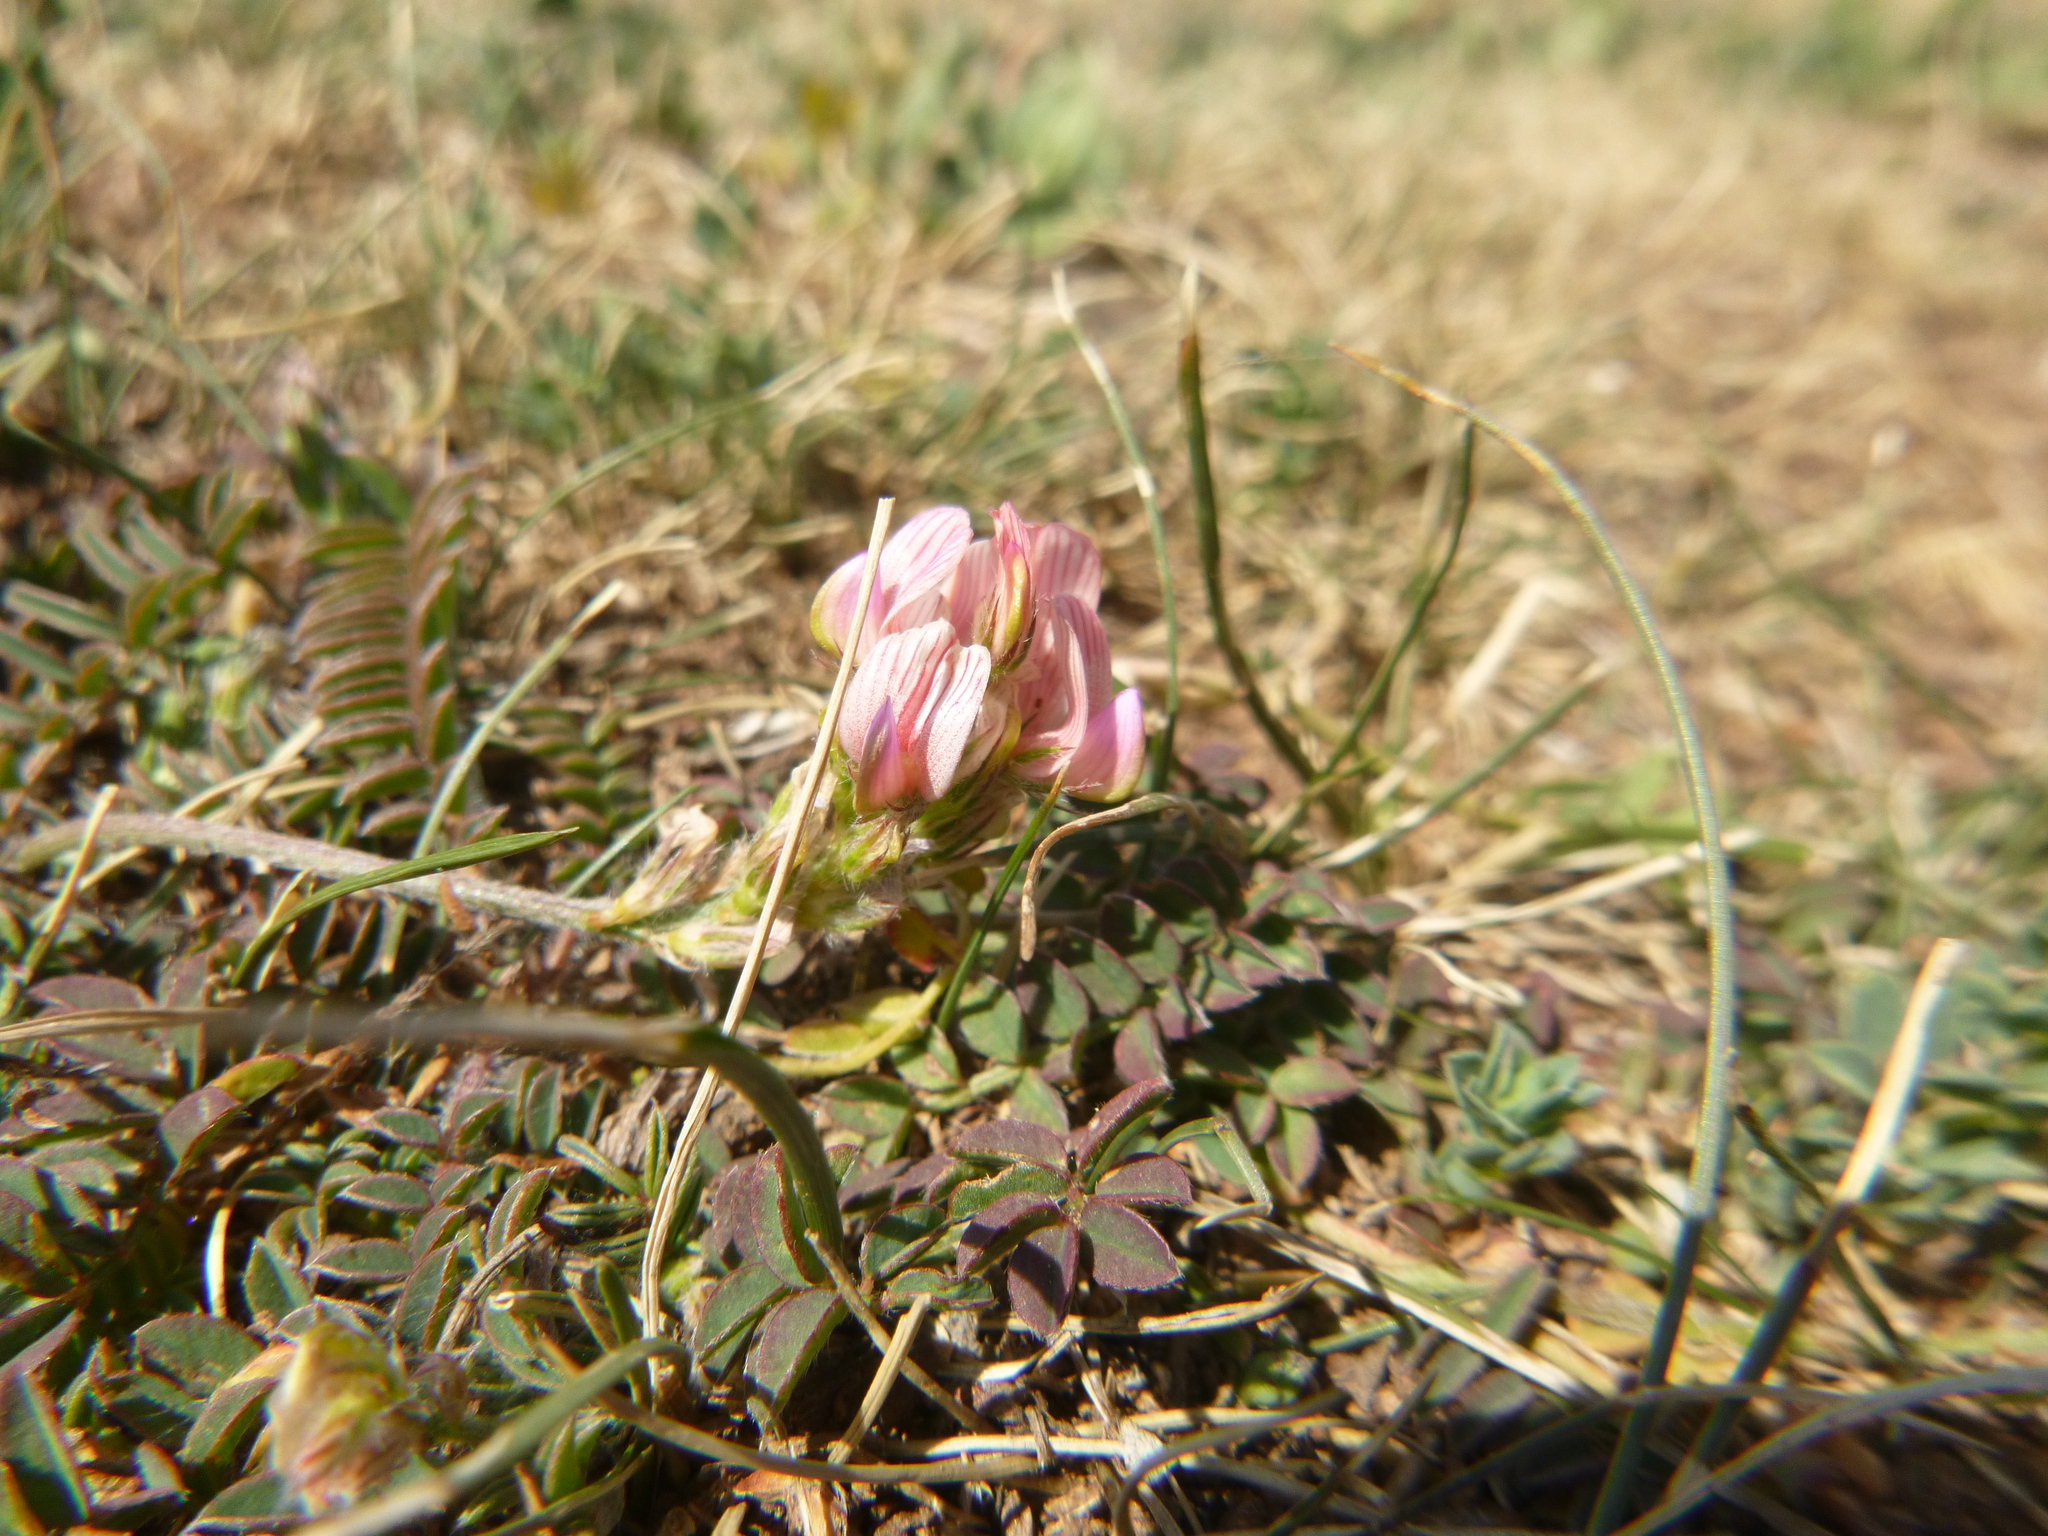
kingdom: Plantae
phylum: Tracheophyta
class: Magnoliopsida
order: Fabales
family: Fabaceae
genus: Onobrychis
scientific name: Onobrychis conferta
